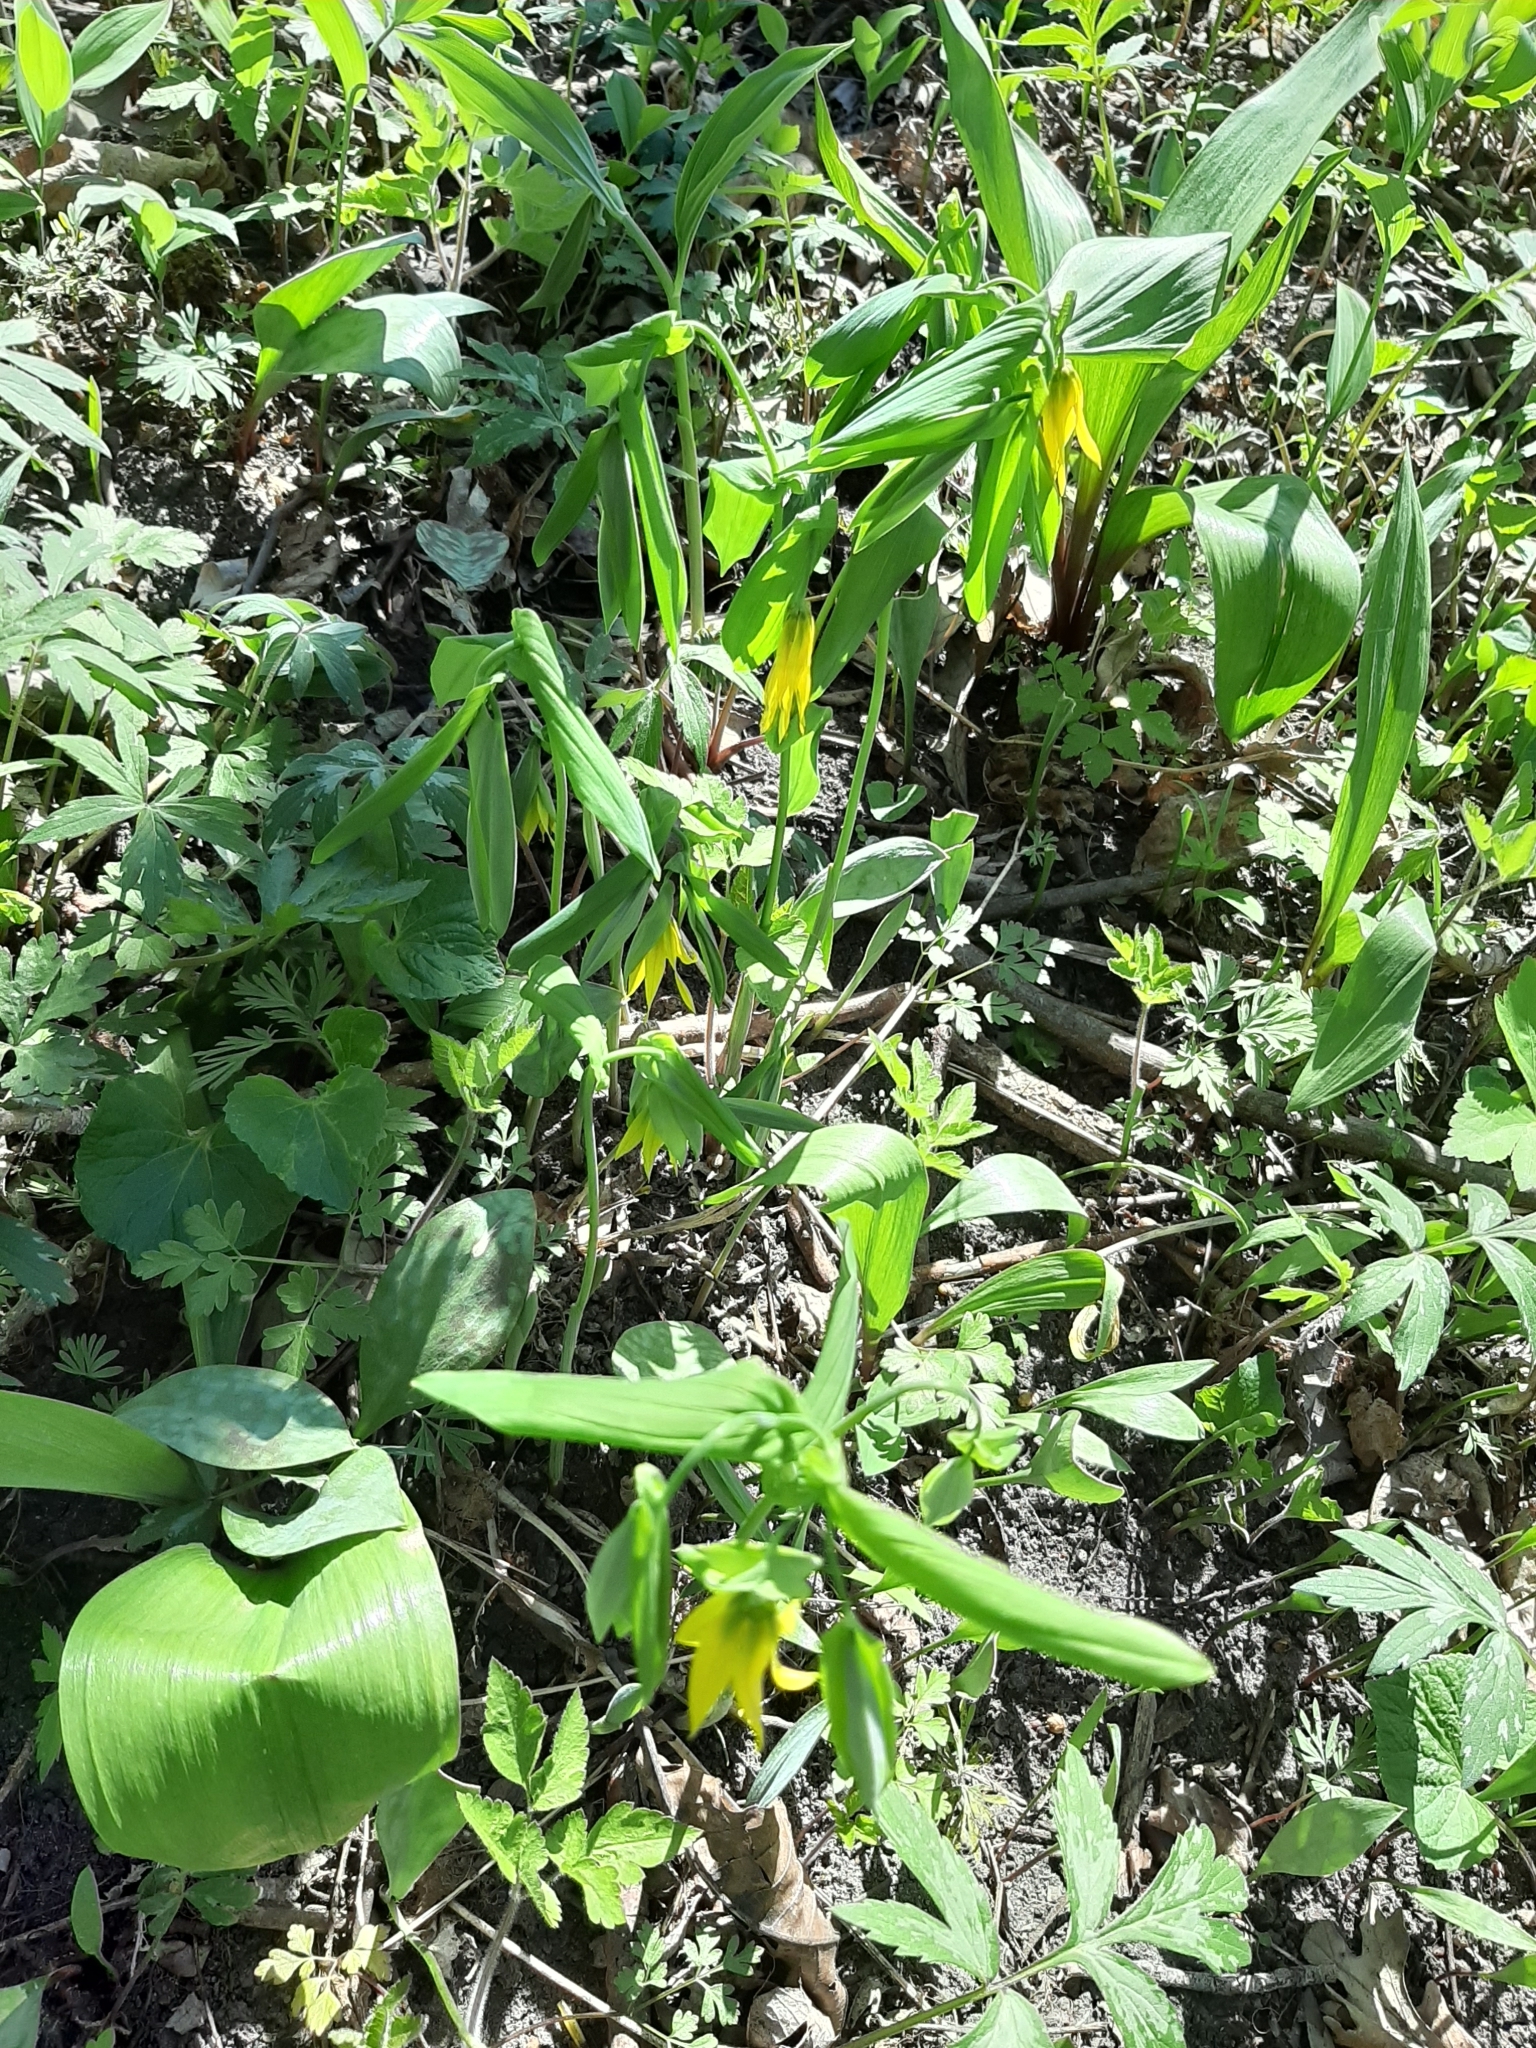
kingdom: Plantae
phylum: Tracheophyta
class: Liliopsida
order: Liliales
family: Colchicaceae
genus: Uvularia
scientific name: Uvularia grandiflora
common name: Bellwort
